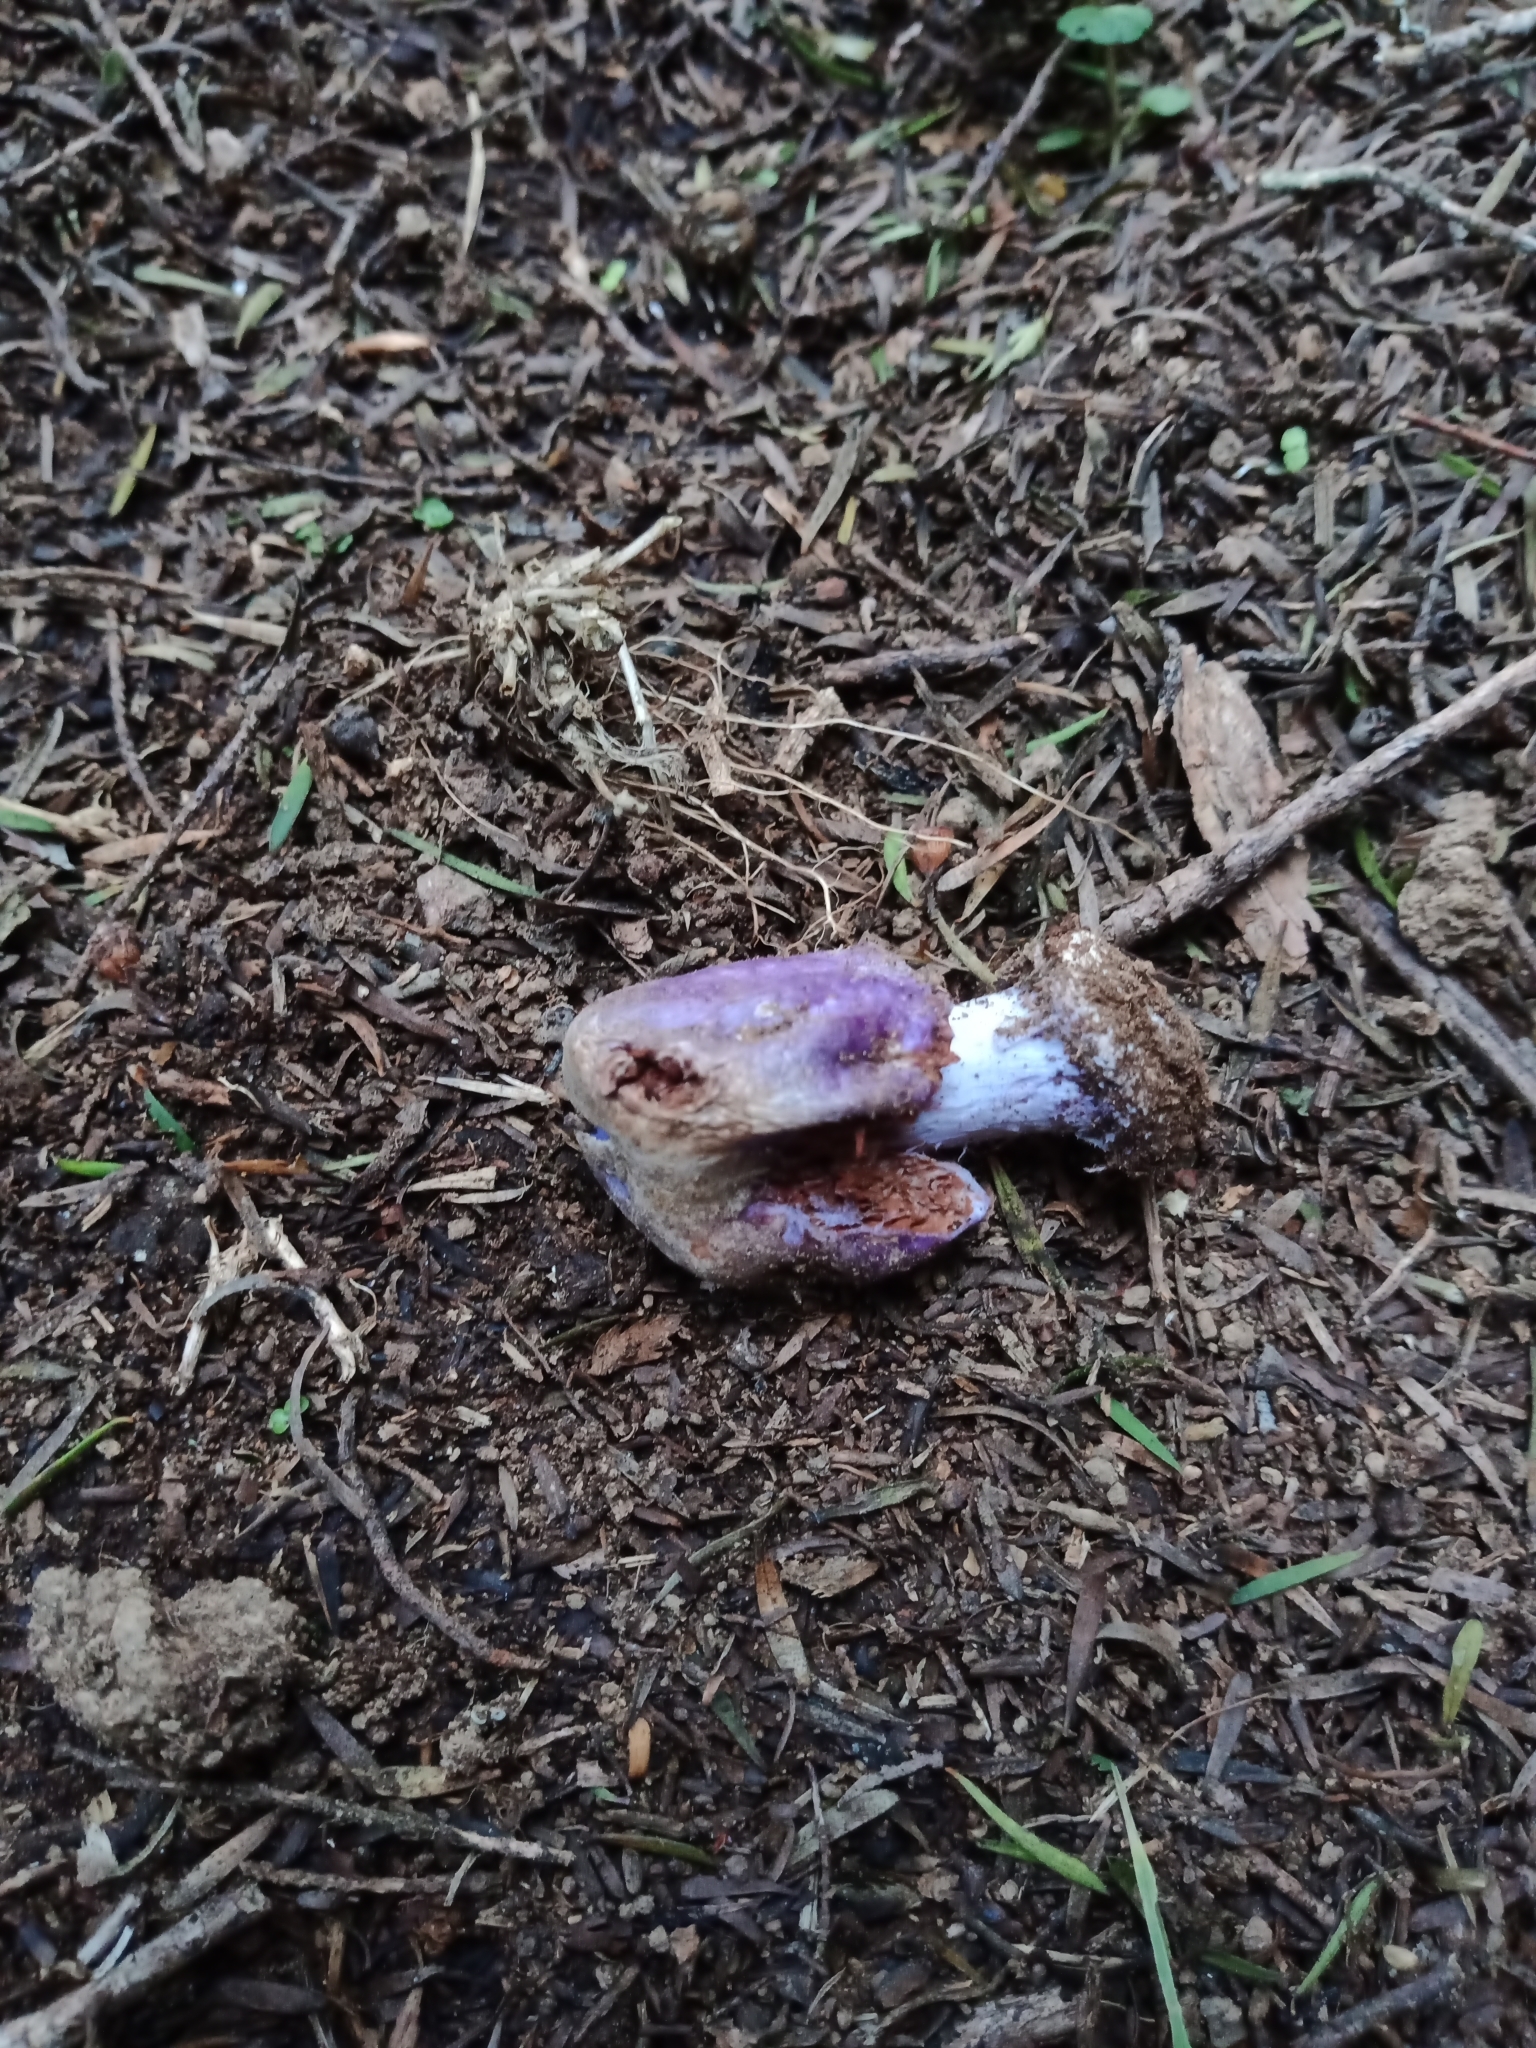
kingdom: Fungi
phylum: Basidiomycota
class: Agaricomycetes
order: Agaricales
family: Cortinariaceae
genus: Cortinarius
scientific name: Cortinarius coneae
